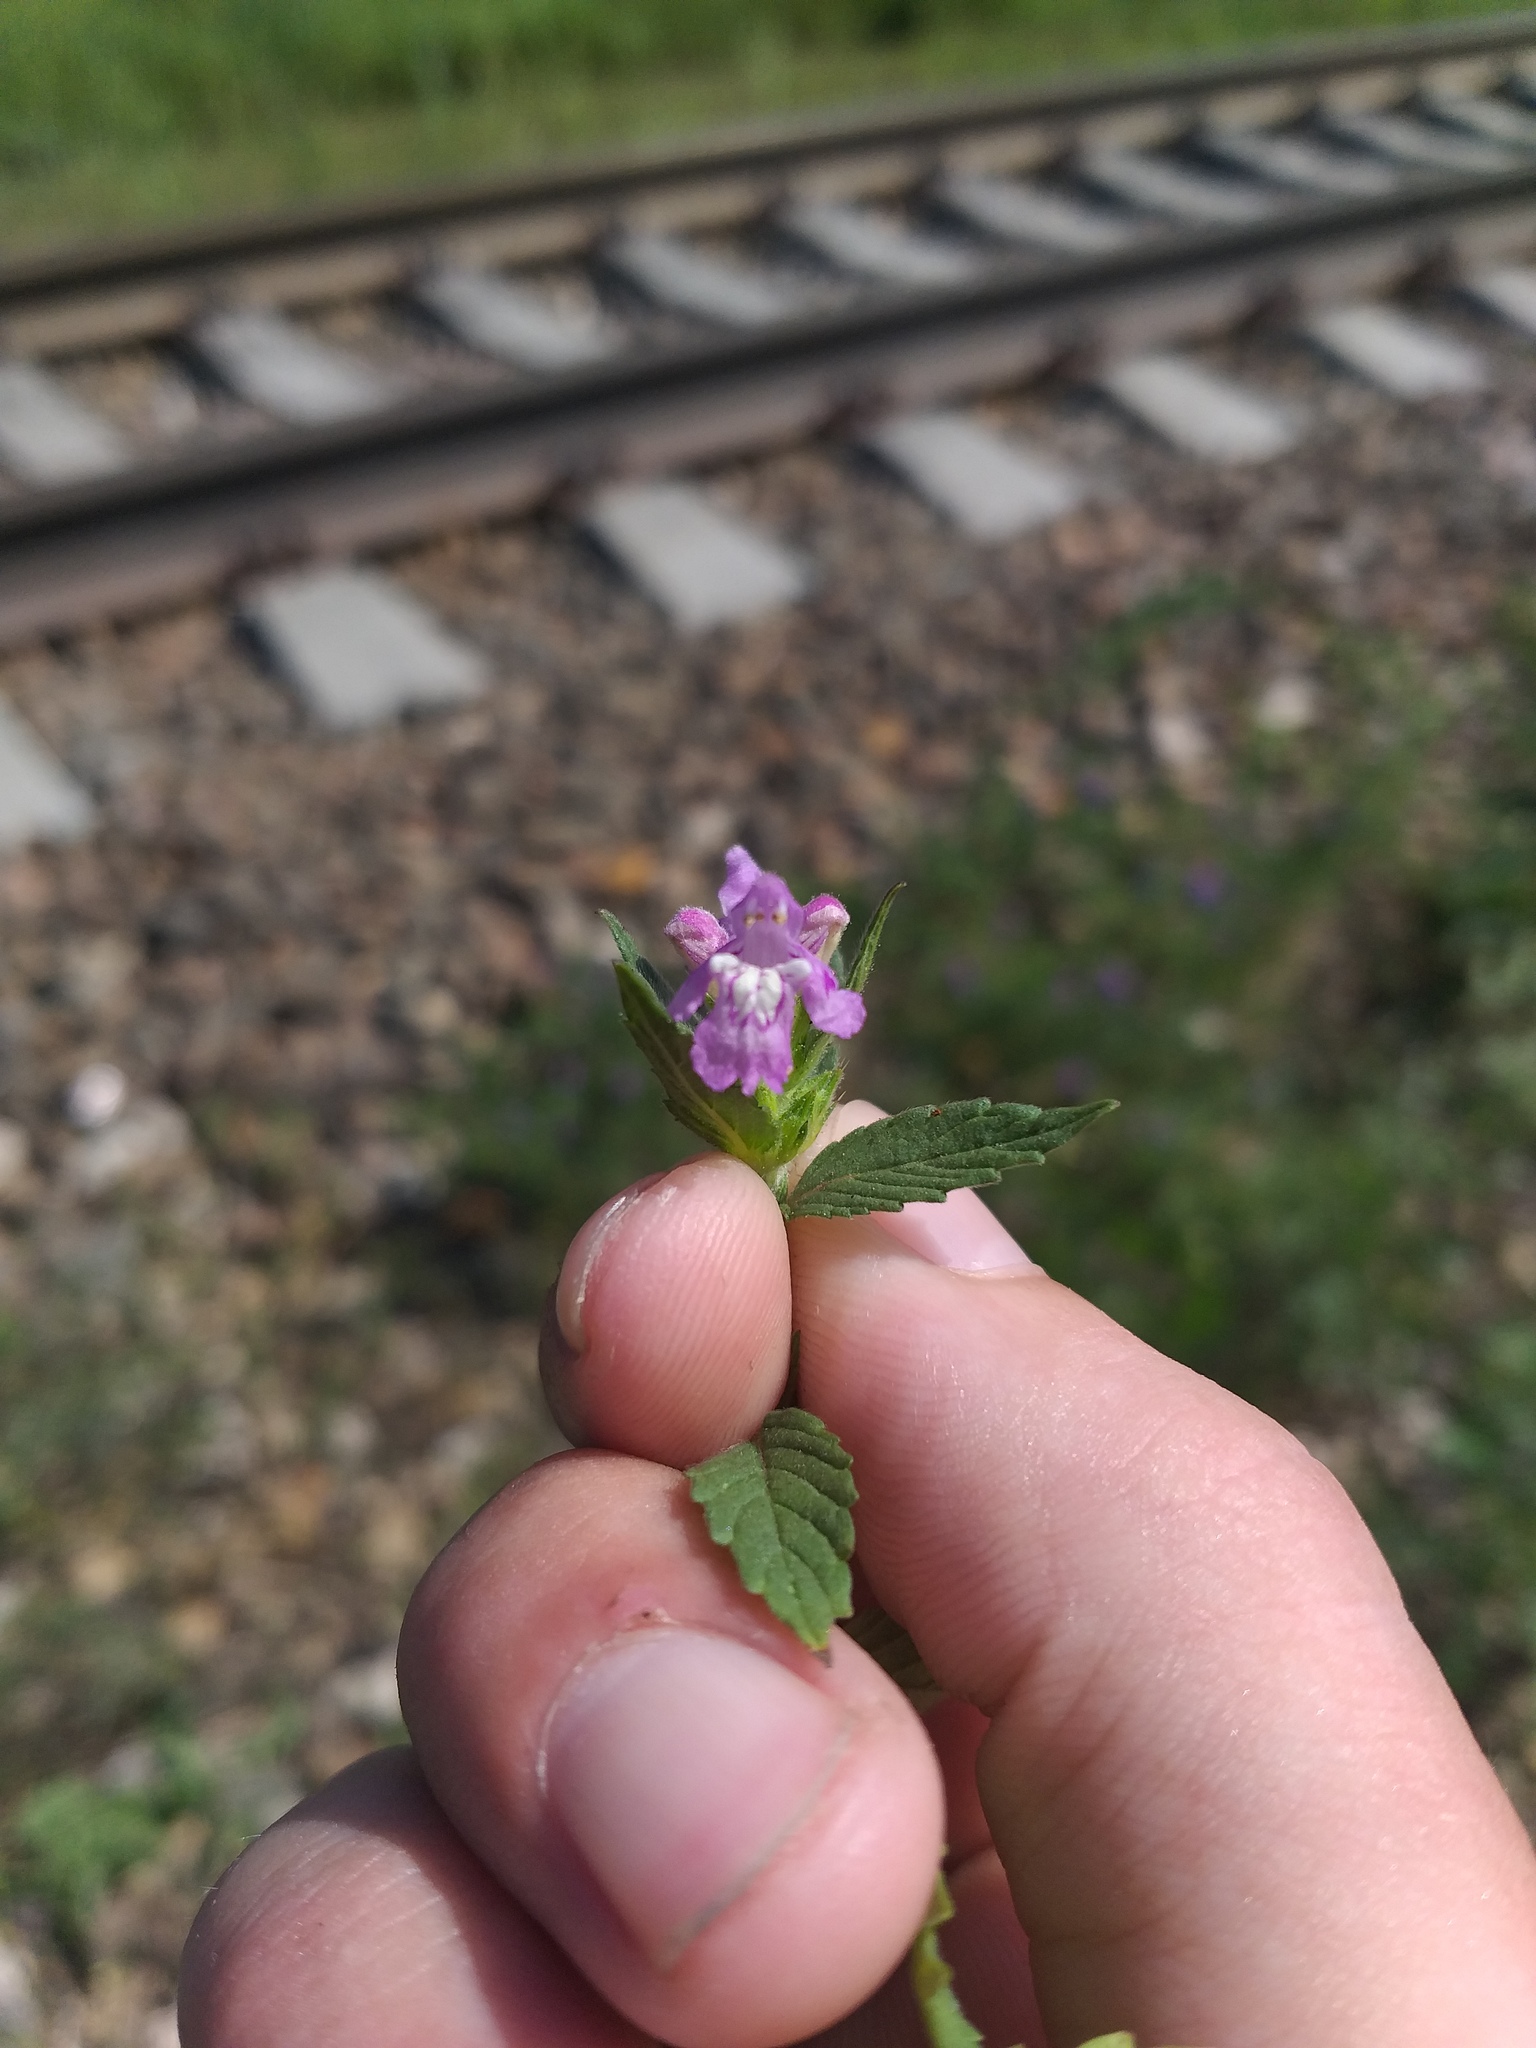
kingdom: Plantae
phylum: Tracheophyta
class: Magnoliopsida
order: Lamiales
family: Lamiaceae
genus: Galeopsis
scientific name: Galeopsis ladanum
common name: Broad-leaved hemp-nettle
